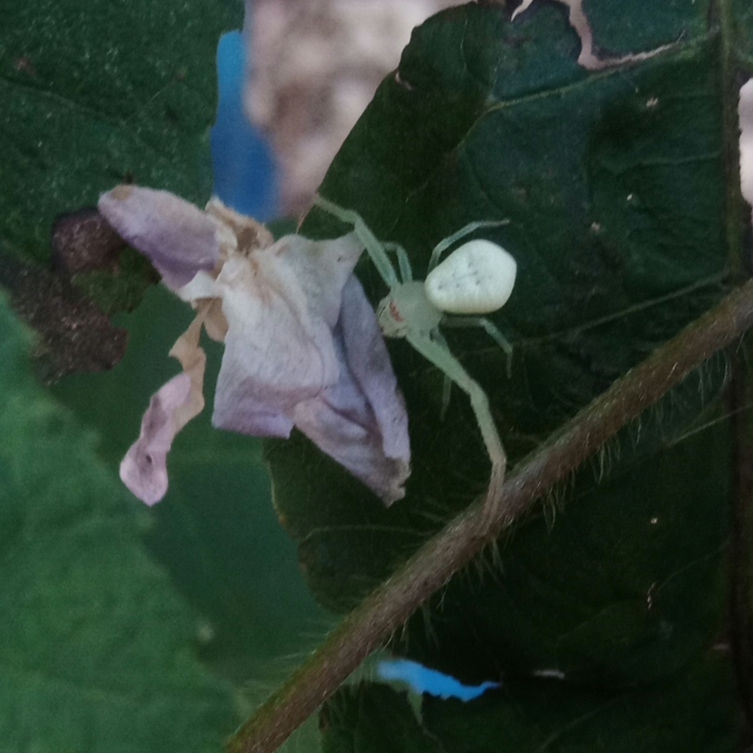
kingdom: Animalia
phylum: Arthropoda
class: Arachnida
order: Araneae
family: Thomisidae
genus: Misumessus
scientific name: Misumessus oblongus
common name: American green crab spider
